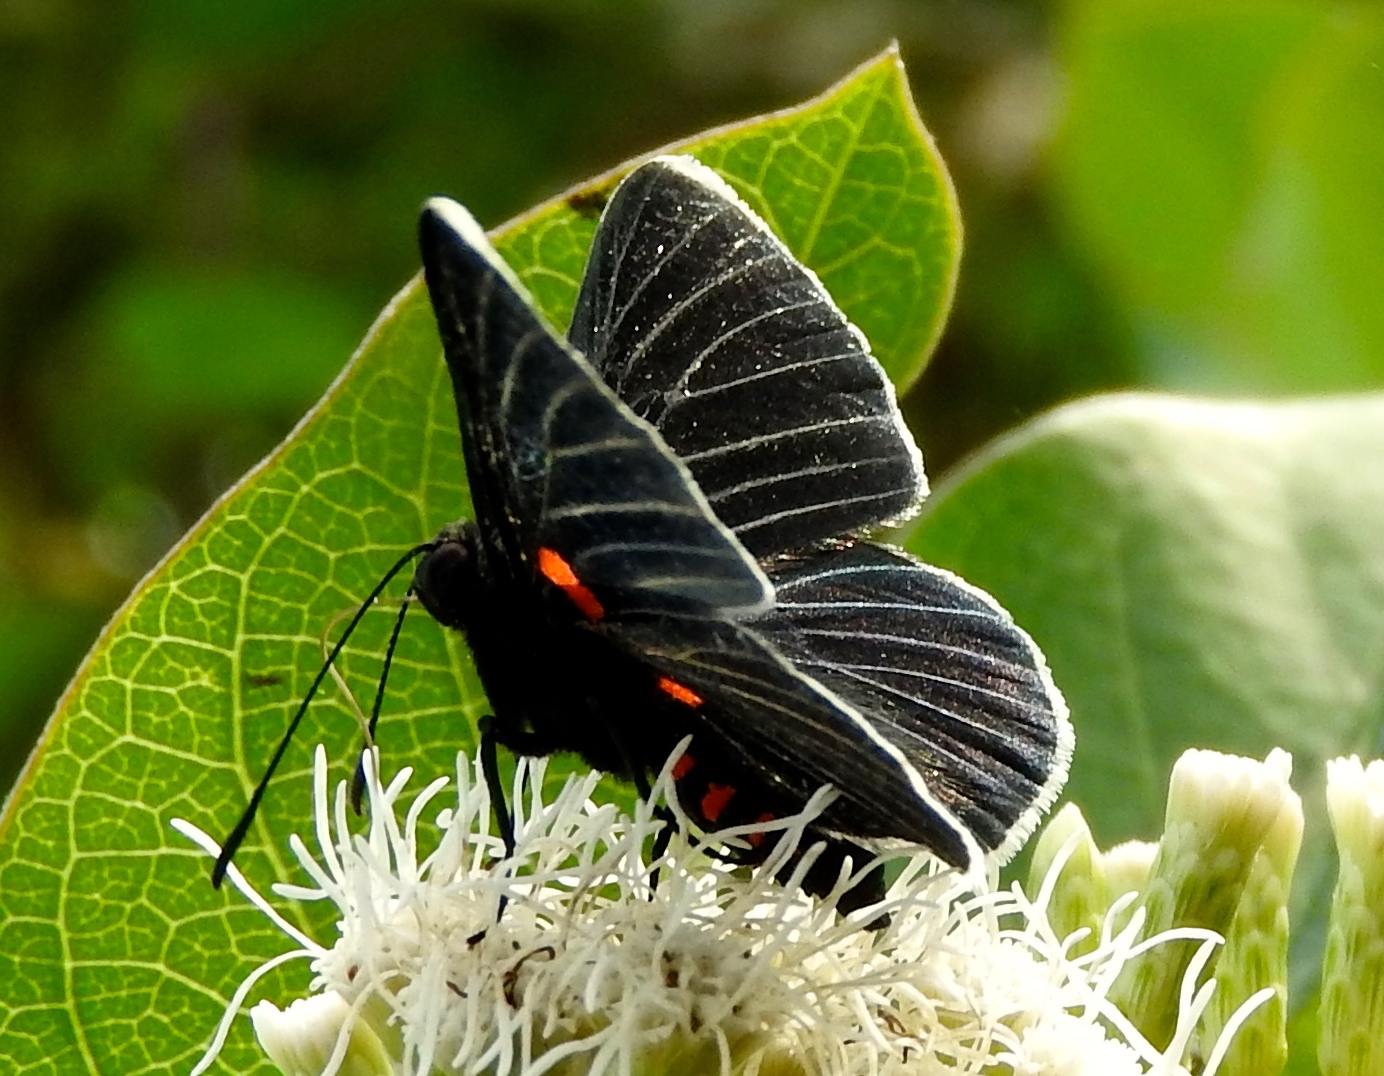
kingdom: Animalia
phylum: Arthropoda
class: Insecta
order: Lepidoptera
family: Lycaenidae
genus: Melanis
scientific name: Melanis
